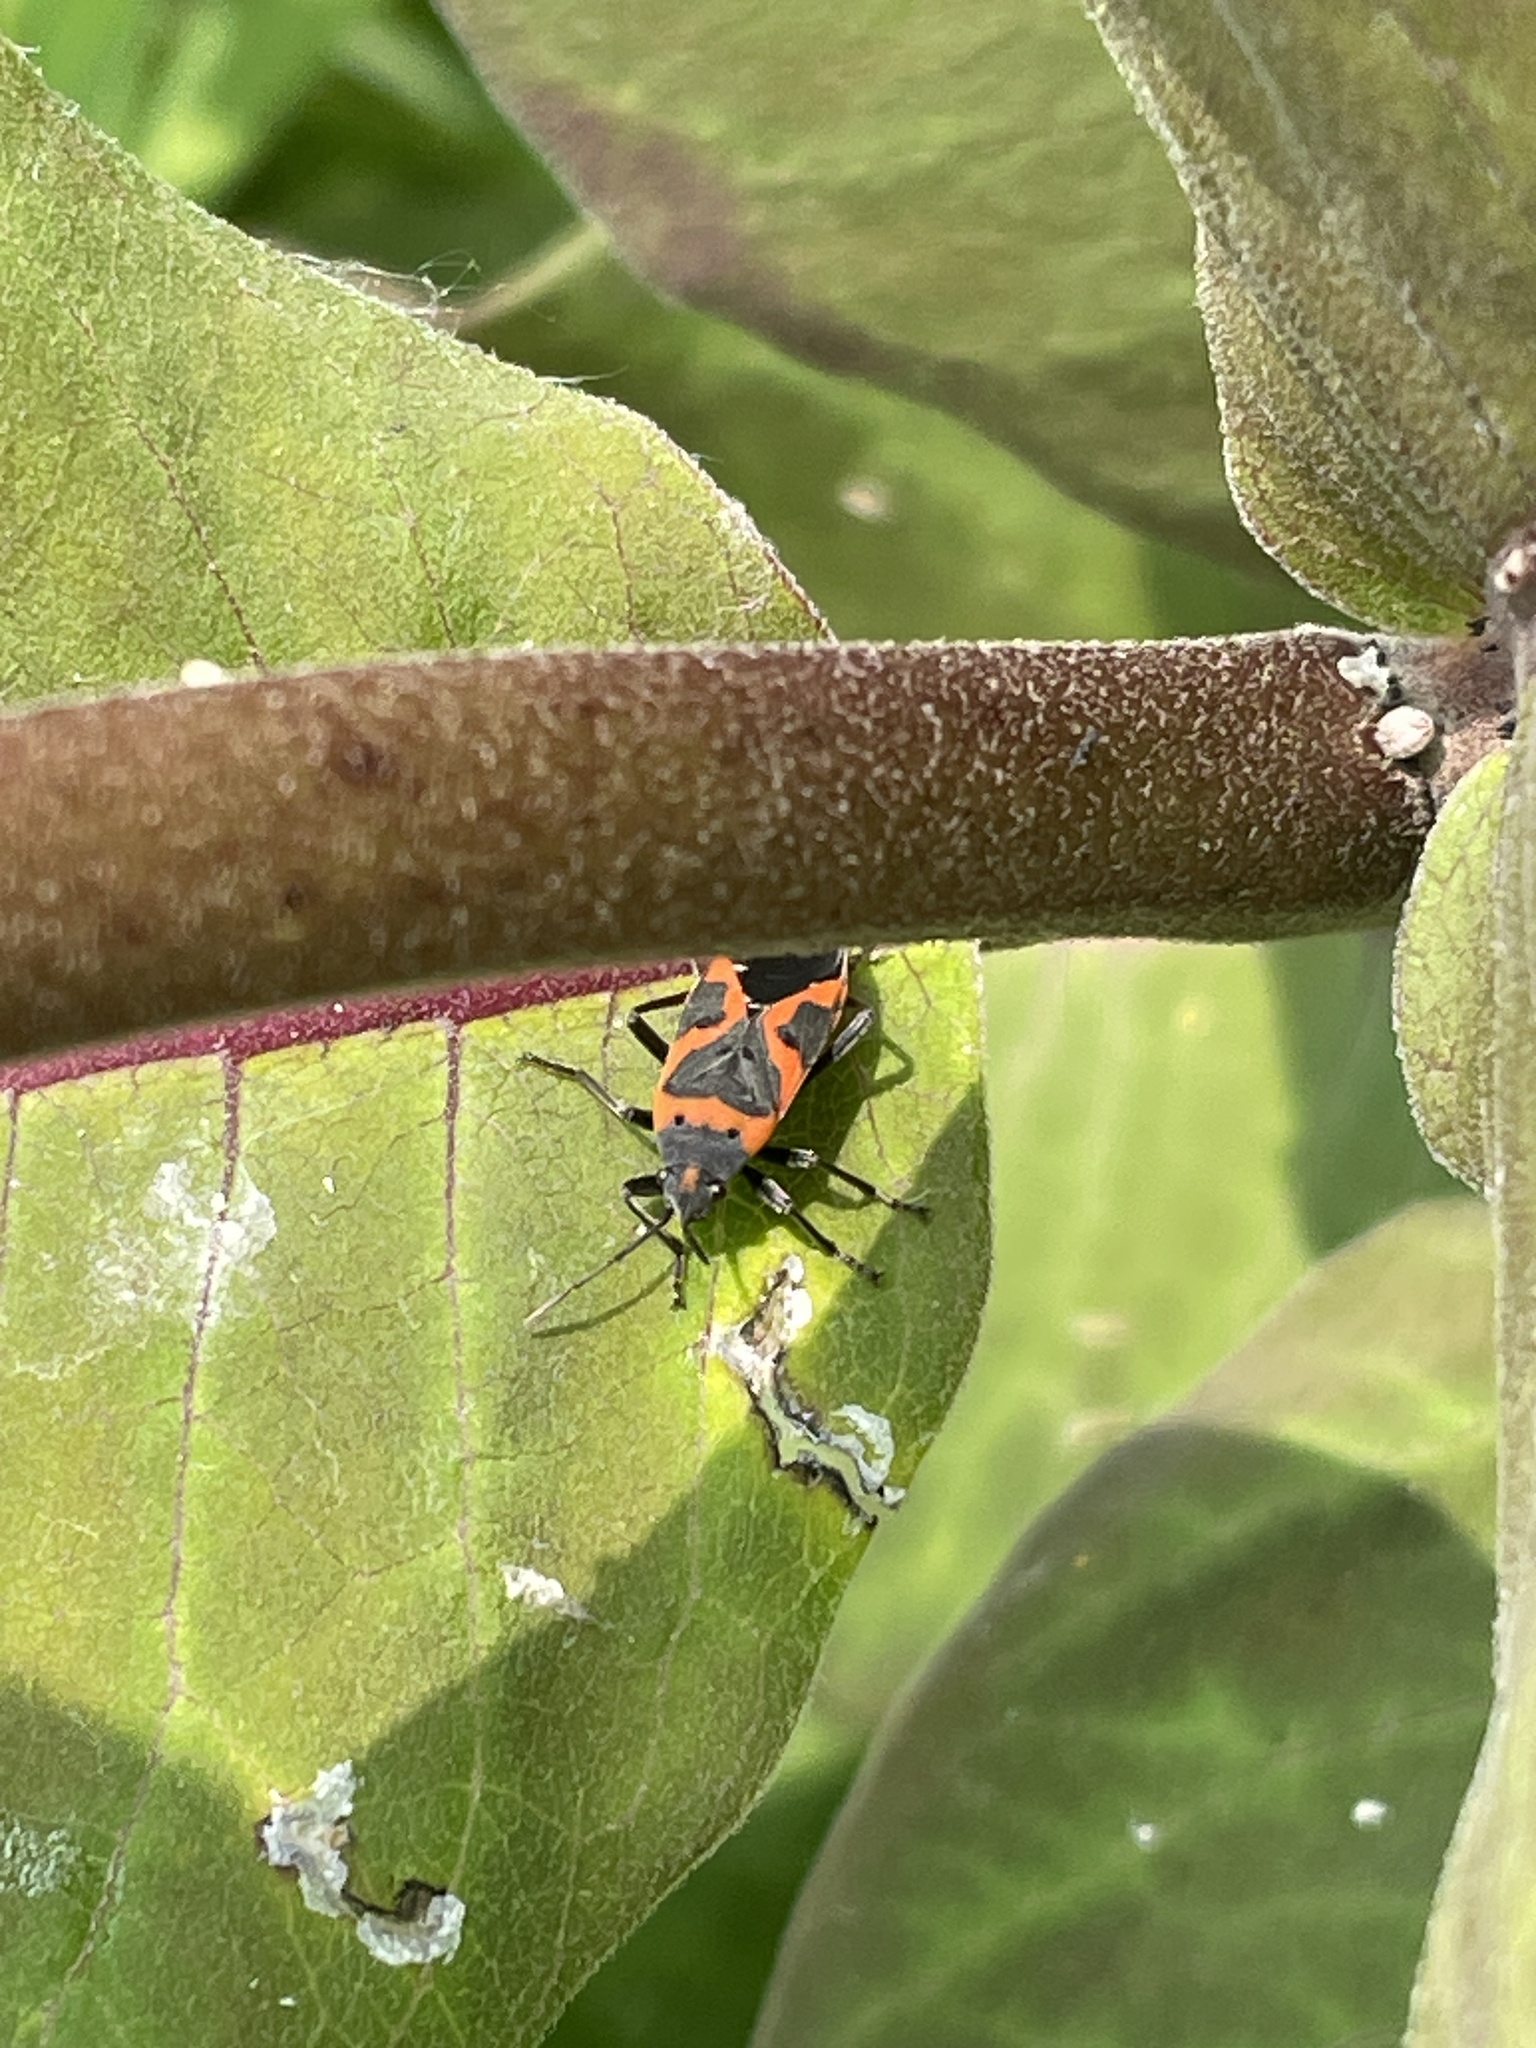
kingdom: Animalia
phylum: Arthropoda
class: Insecta
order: Hemiptera
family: Lygaeidae
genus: Lygaeus
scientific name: Lygaeus kalmii
